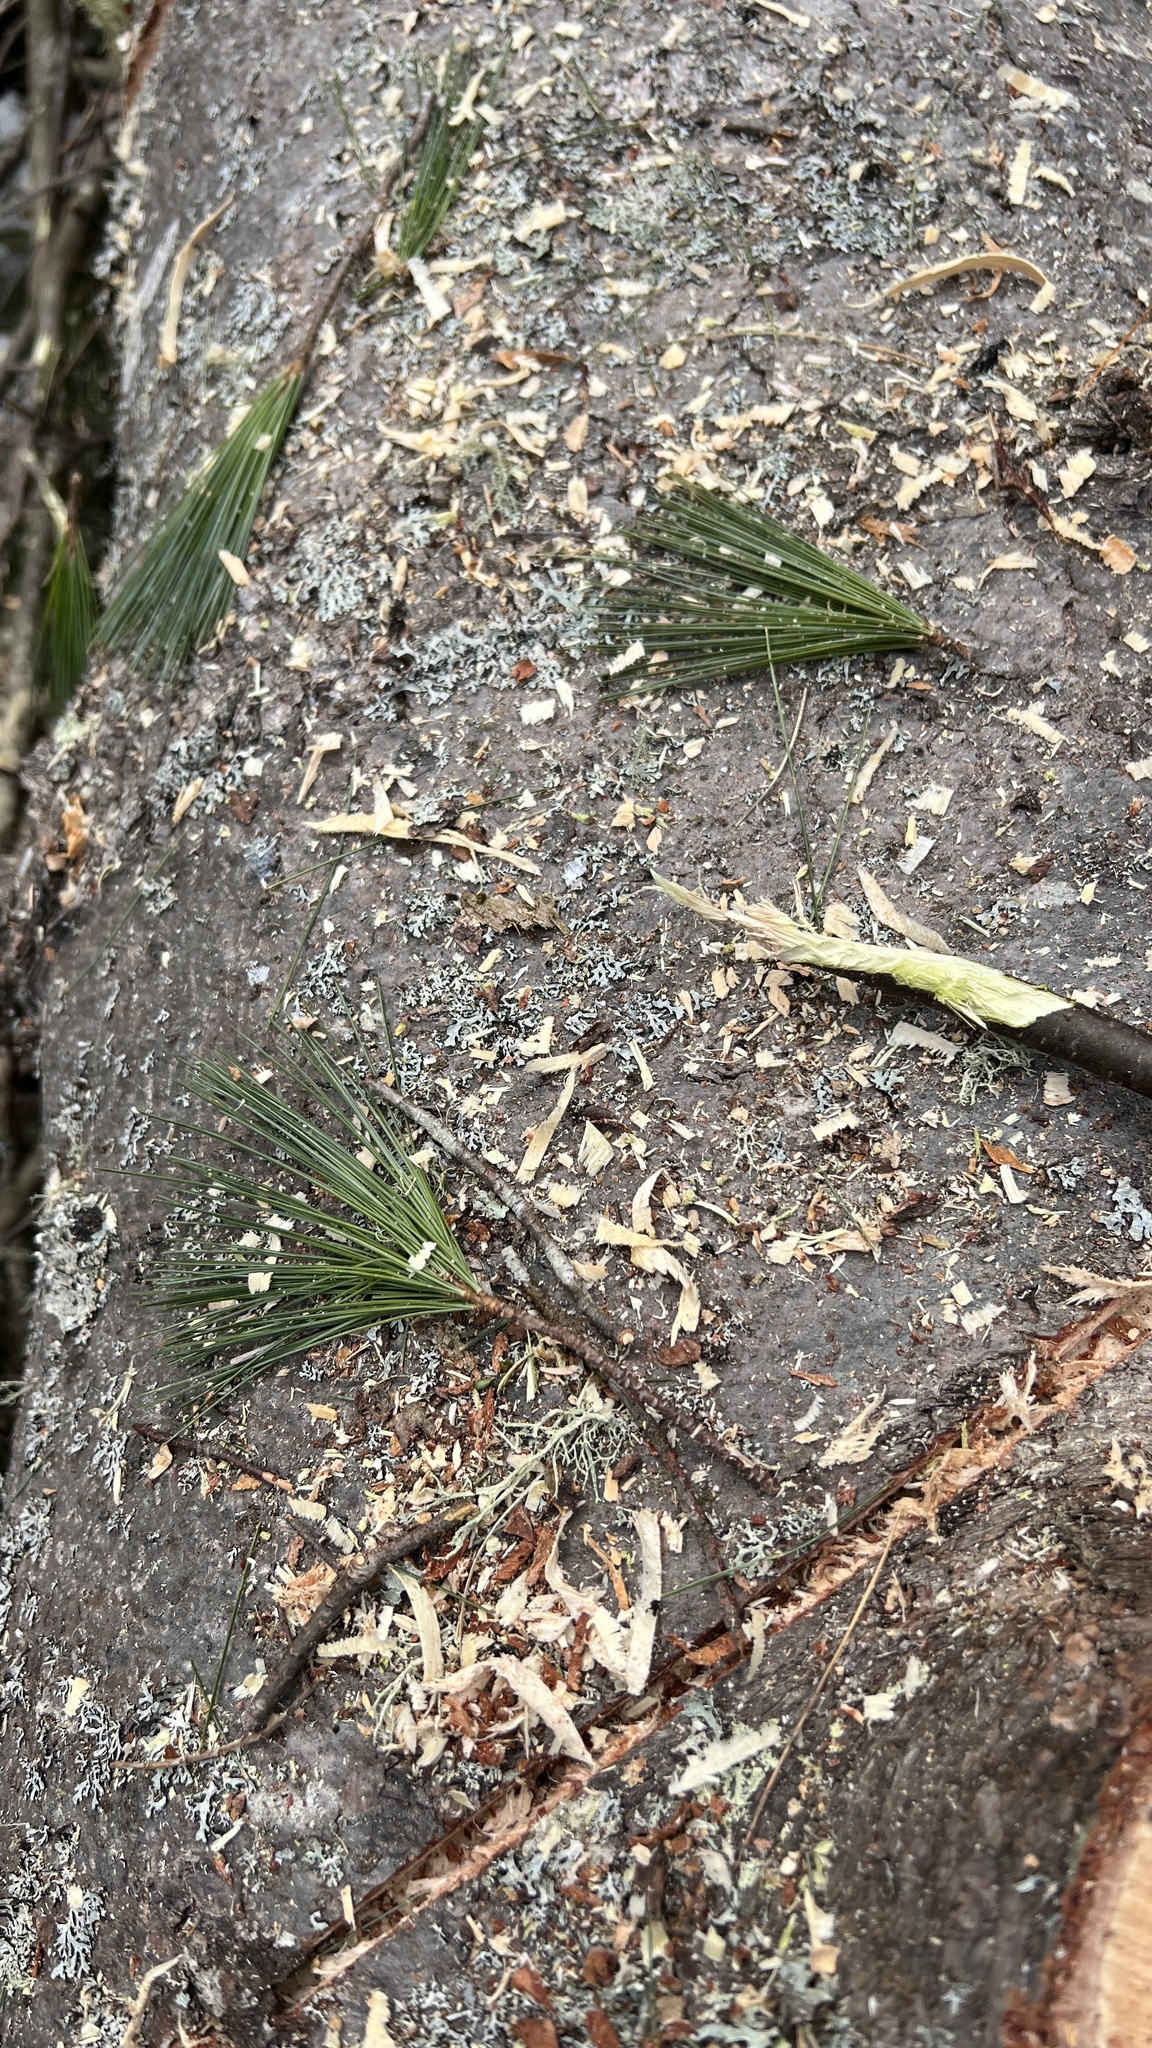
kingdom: Plantae
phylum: Tracheophyta
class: Pinopsida
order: Pinales
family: Pinaceae
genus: Pinus
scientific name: Pinus strobus
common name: Weymouth pine
